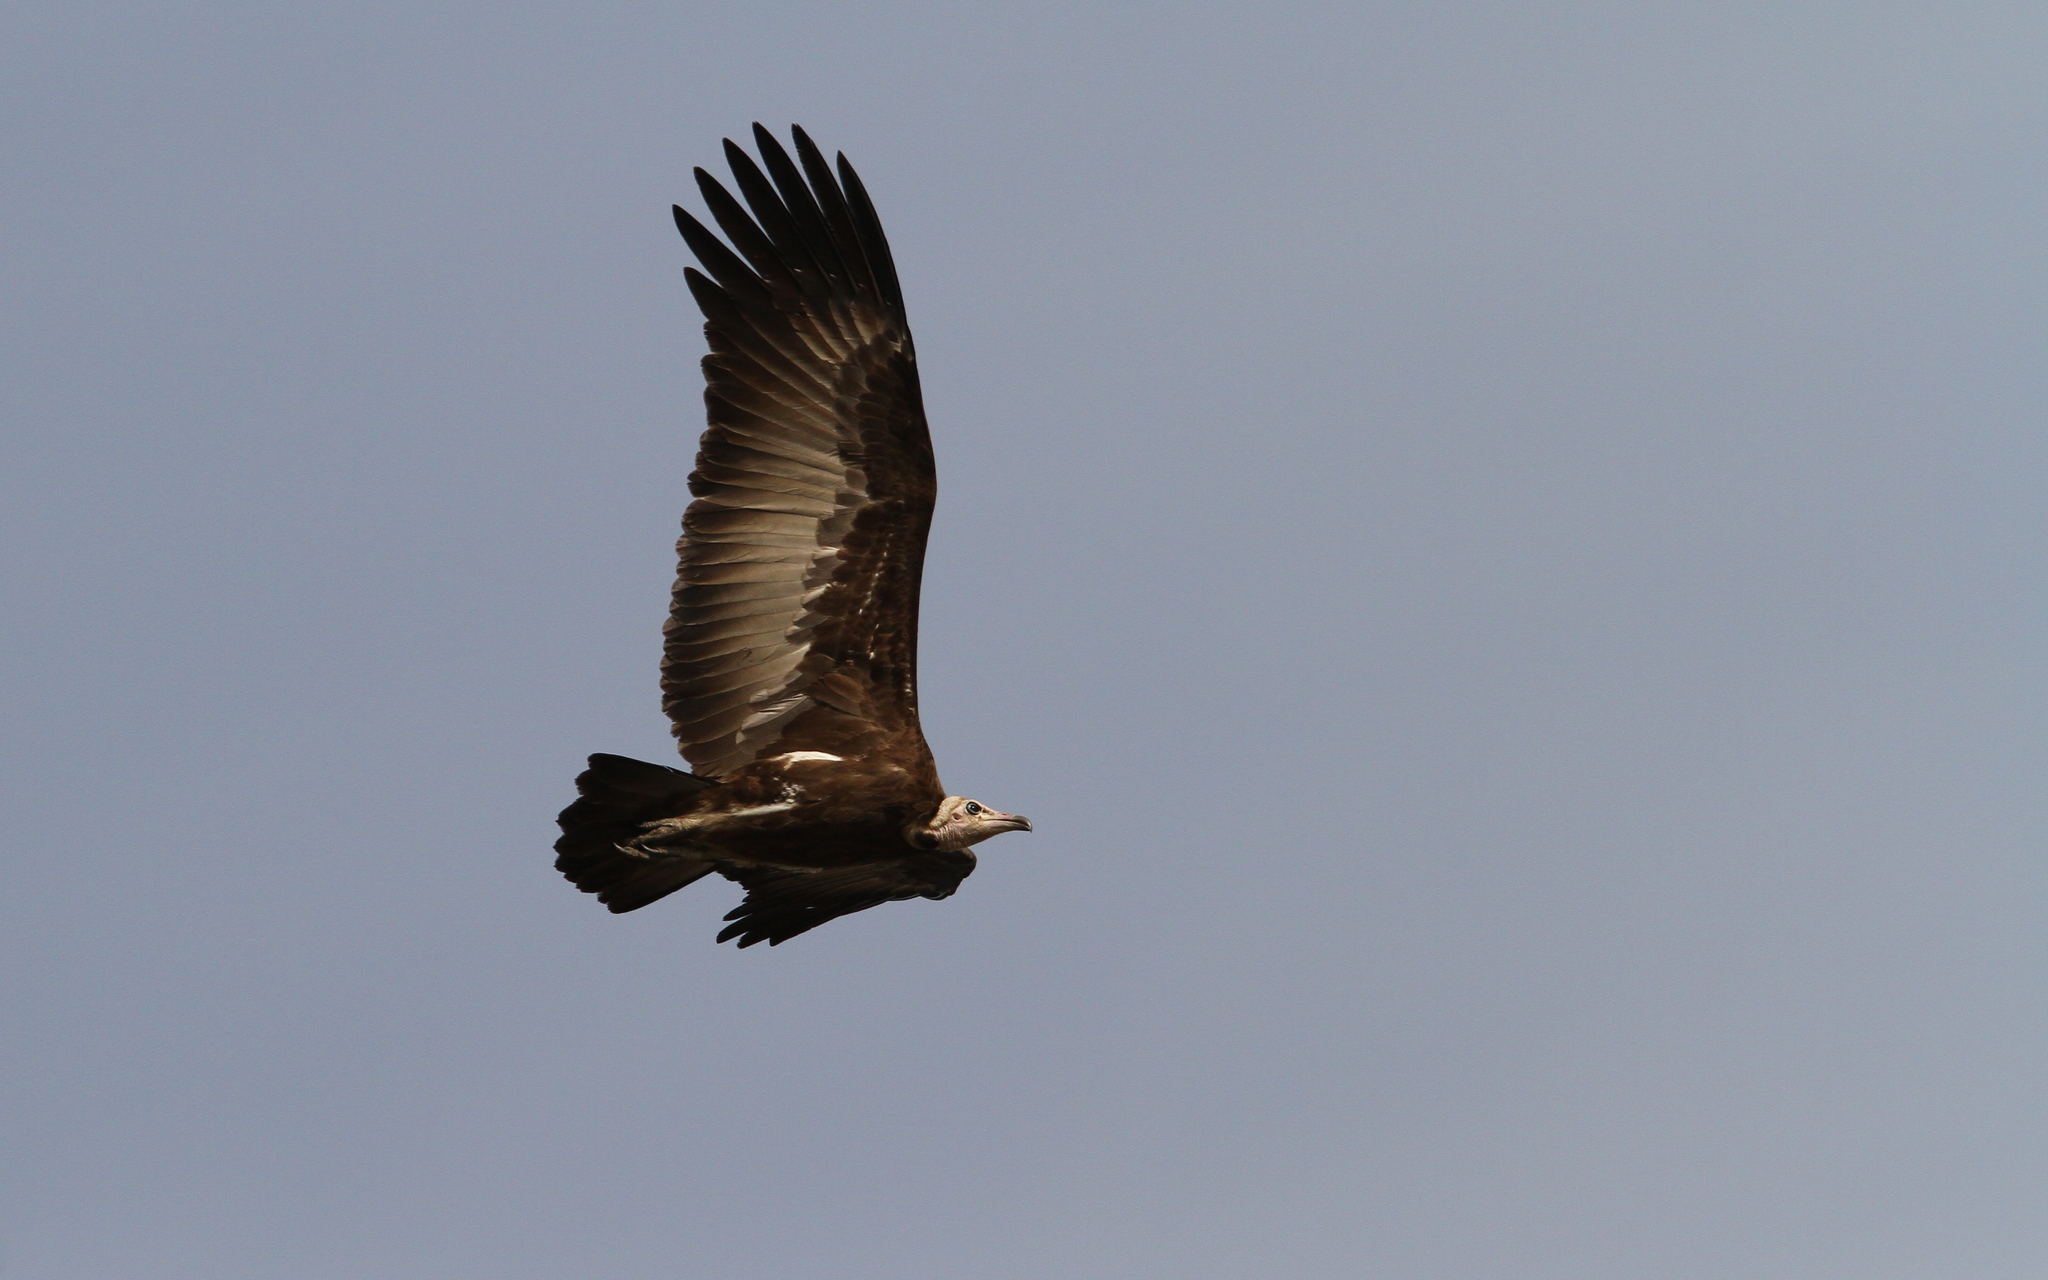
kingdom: Animalia
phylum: Chordata
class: Aves
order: Accipitriformes
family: Accipitridae
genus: Necrosyrtes
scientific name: Necrosyrtes monachus
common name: Hooded vulture
